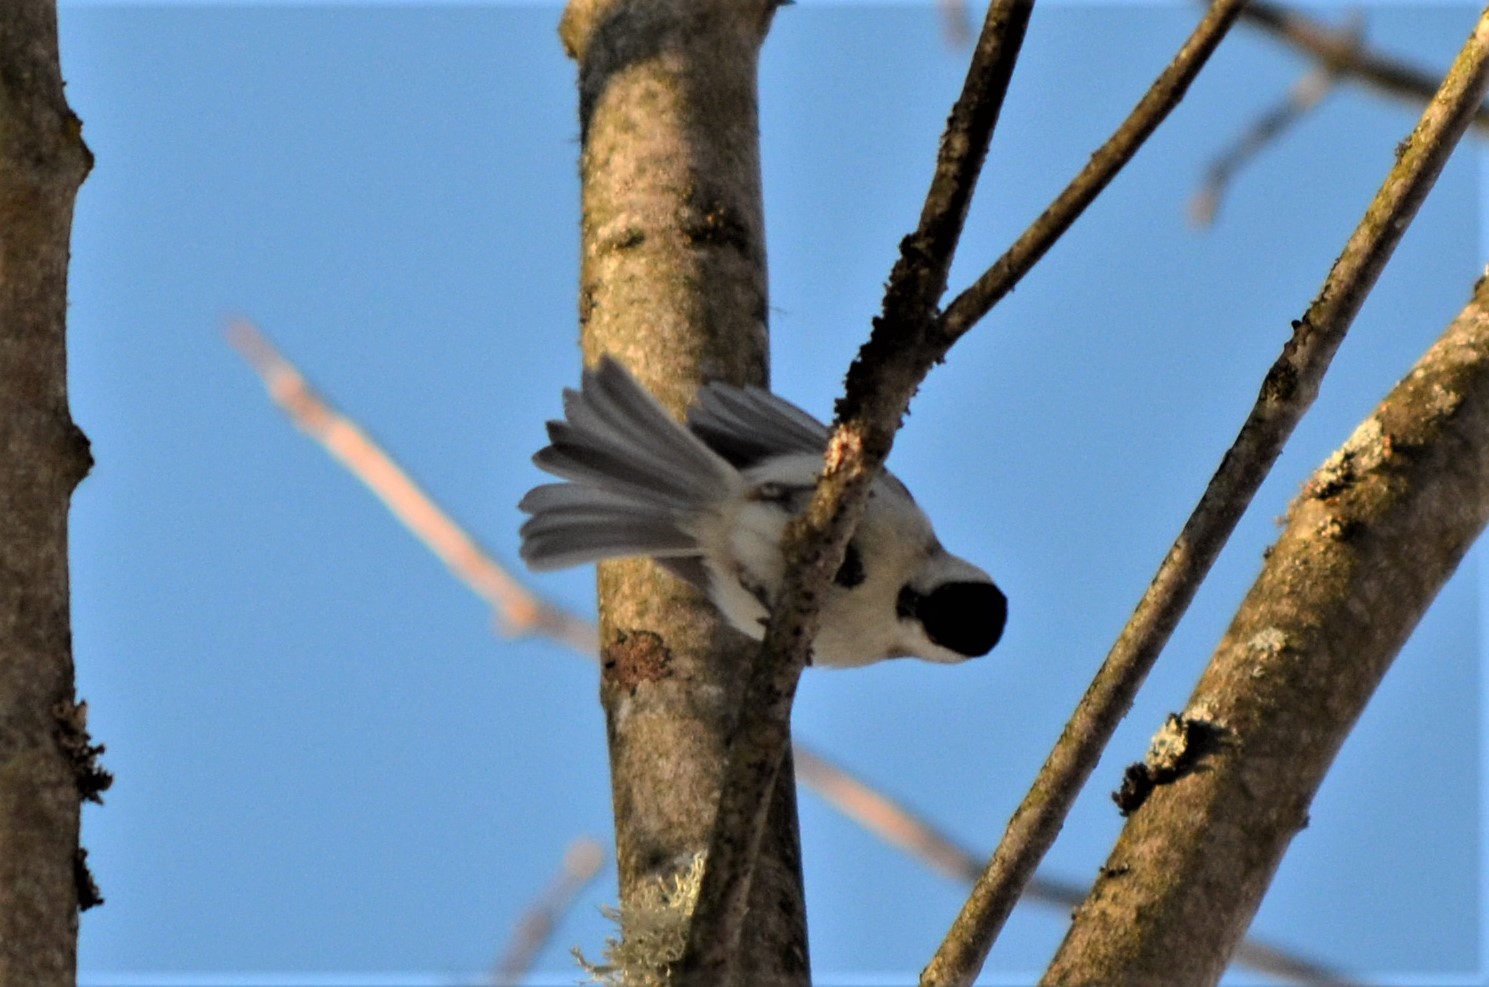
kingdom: Animalia
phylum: Chordata
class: Aves
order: Passeriformes
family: Paridae
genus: Poecile
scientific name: Poecile palustris
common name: Marsh tit
